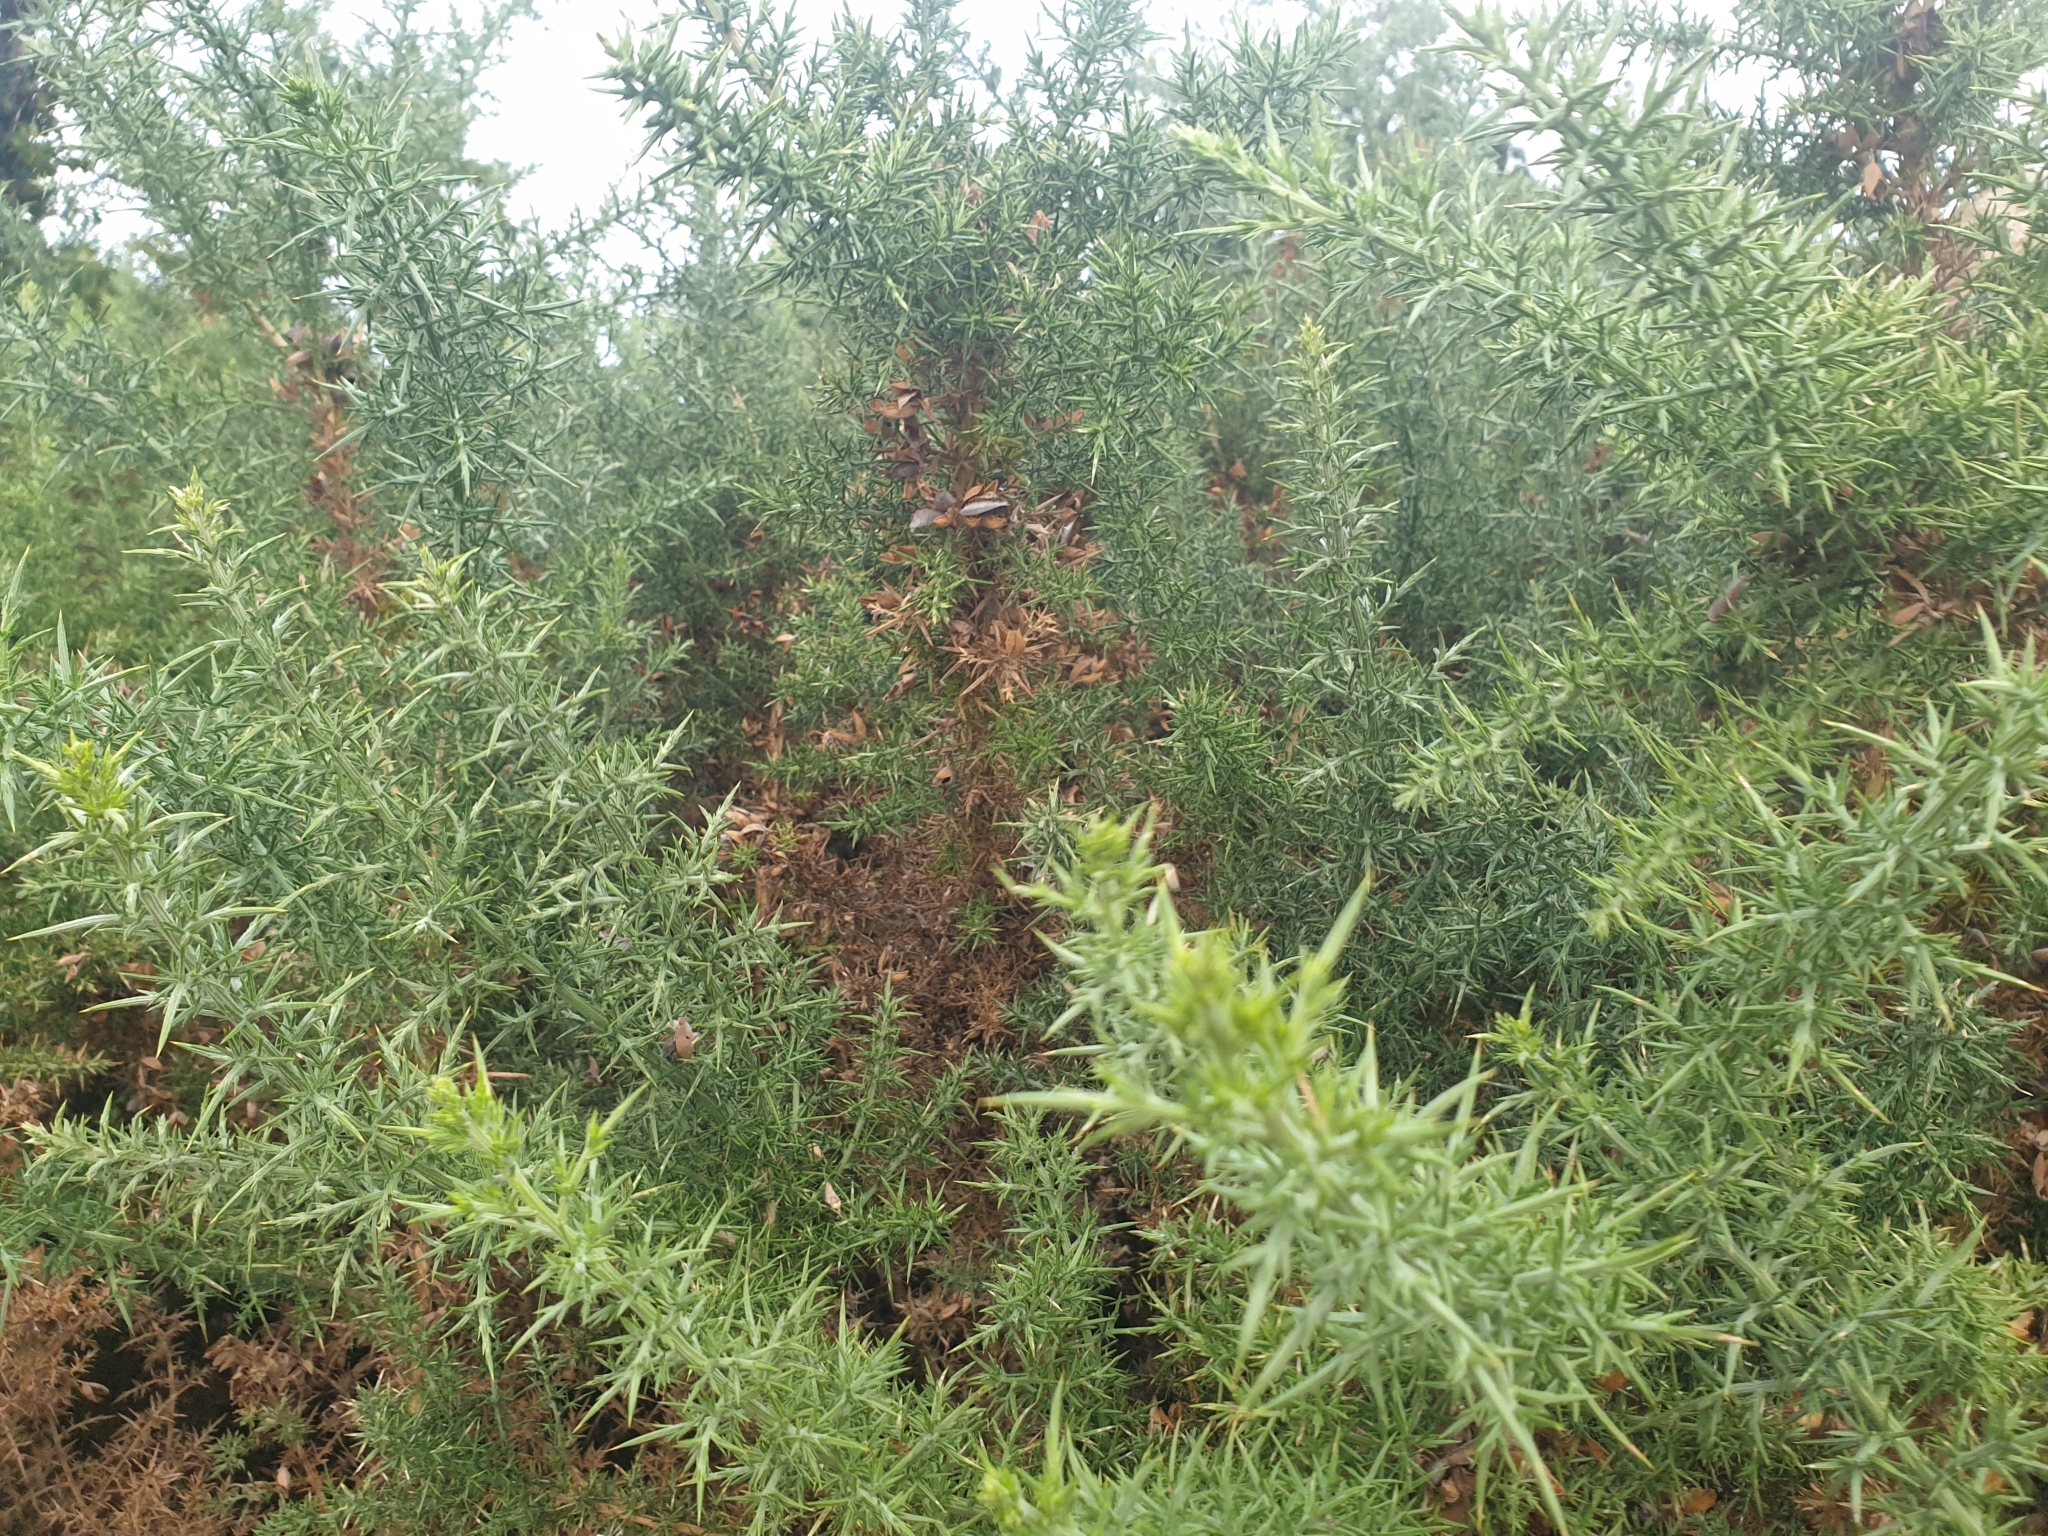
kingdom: Plantae
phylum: Tracheophyta
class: Magnoliopsida
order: Fabales
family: Fabaceae
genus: Ulex
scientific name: Ulex europaeus
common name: Common gorse
